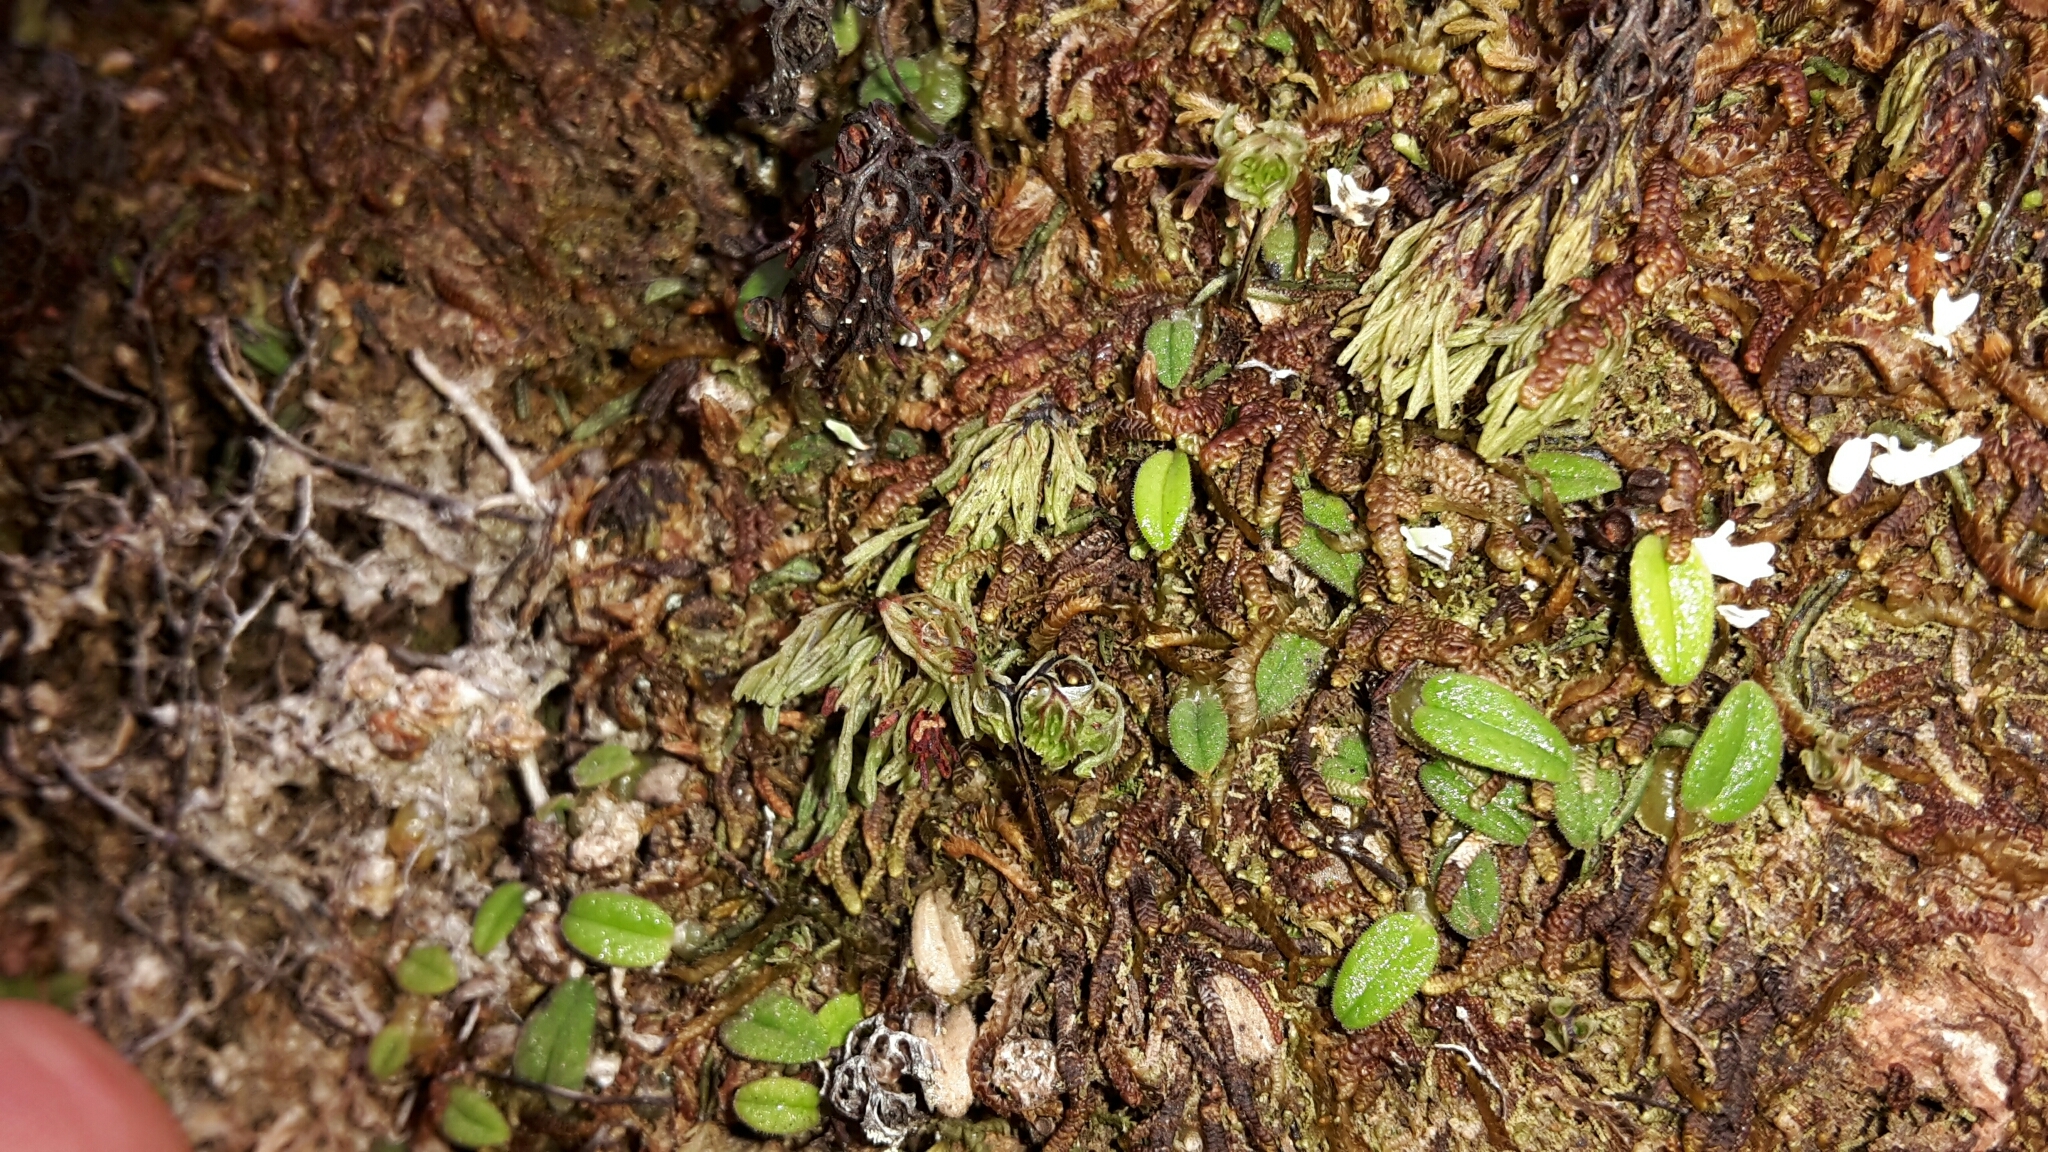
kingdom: Plantae
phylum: Tracheophyta
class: Liliopsida
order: Asparagales
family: Orchidaceae
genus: Bulbophyllum
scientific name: Bulbophyllum pygmaeum
